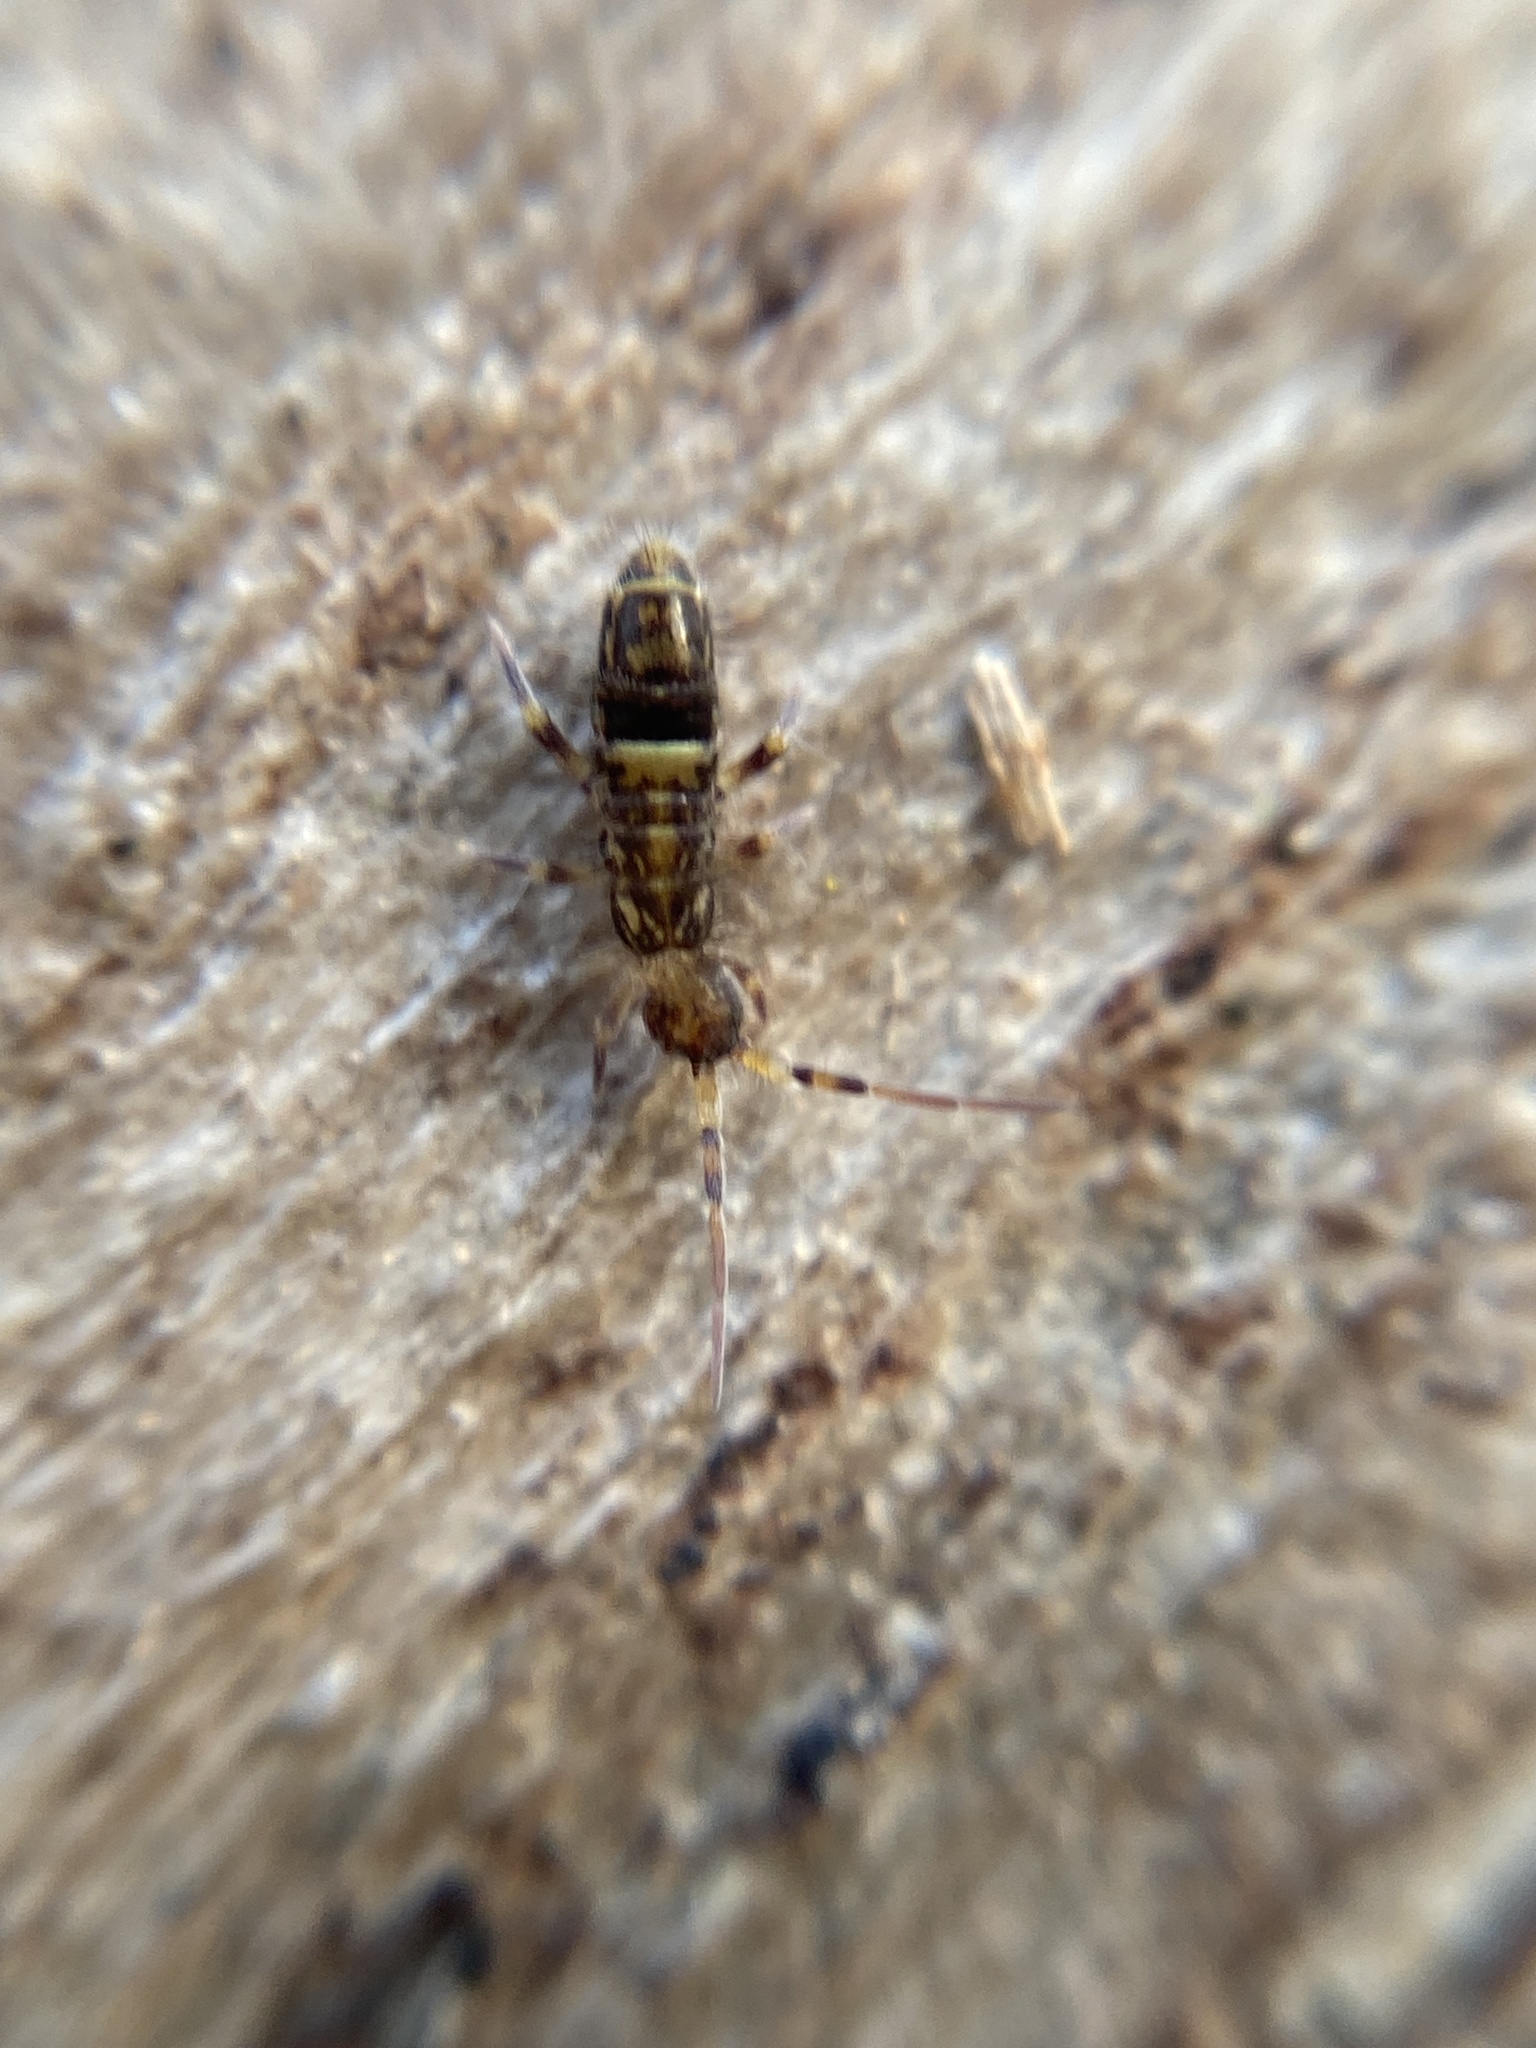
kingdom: Animalia
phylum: Arthropoda
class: Collembola
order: Entomobryomorpha
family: Orchesellidae
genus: Orchesella
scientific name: Orchesella cincta
